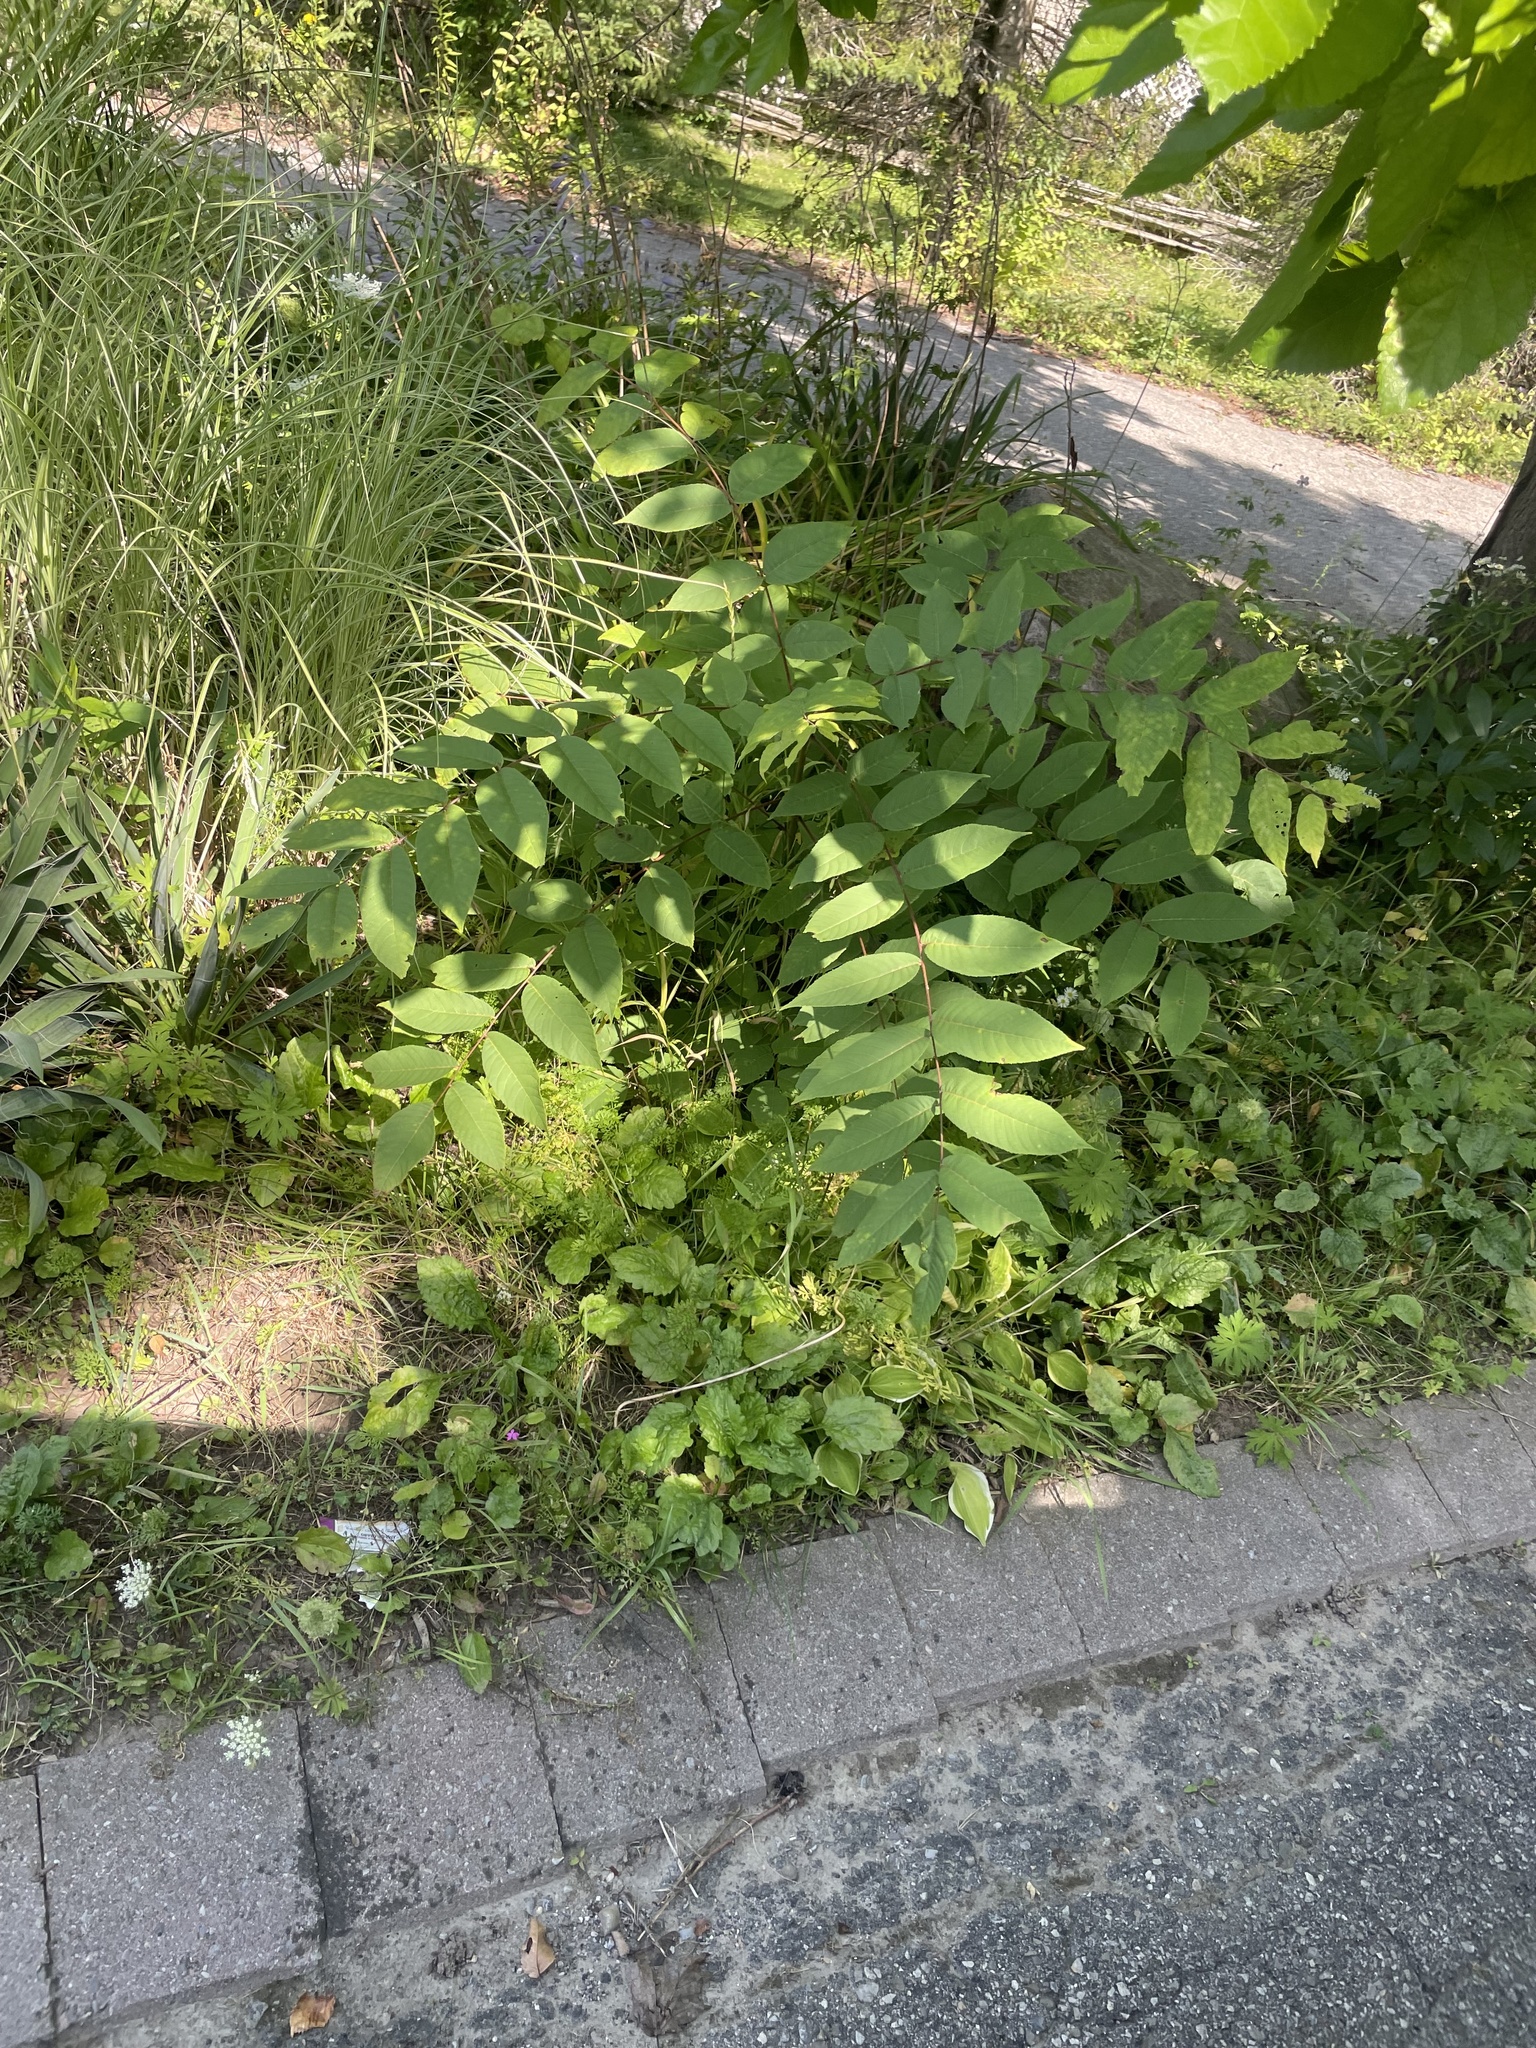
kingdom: Plantae
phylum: Tracheophyta
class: Magnoliopsida
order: Fagales
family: Juglandaceae
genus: Juglans
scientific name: Juglans nigra
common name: Black walnut
